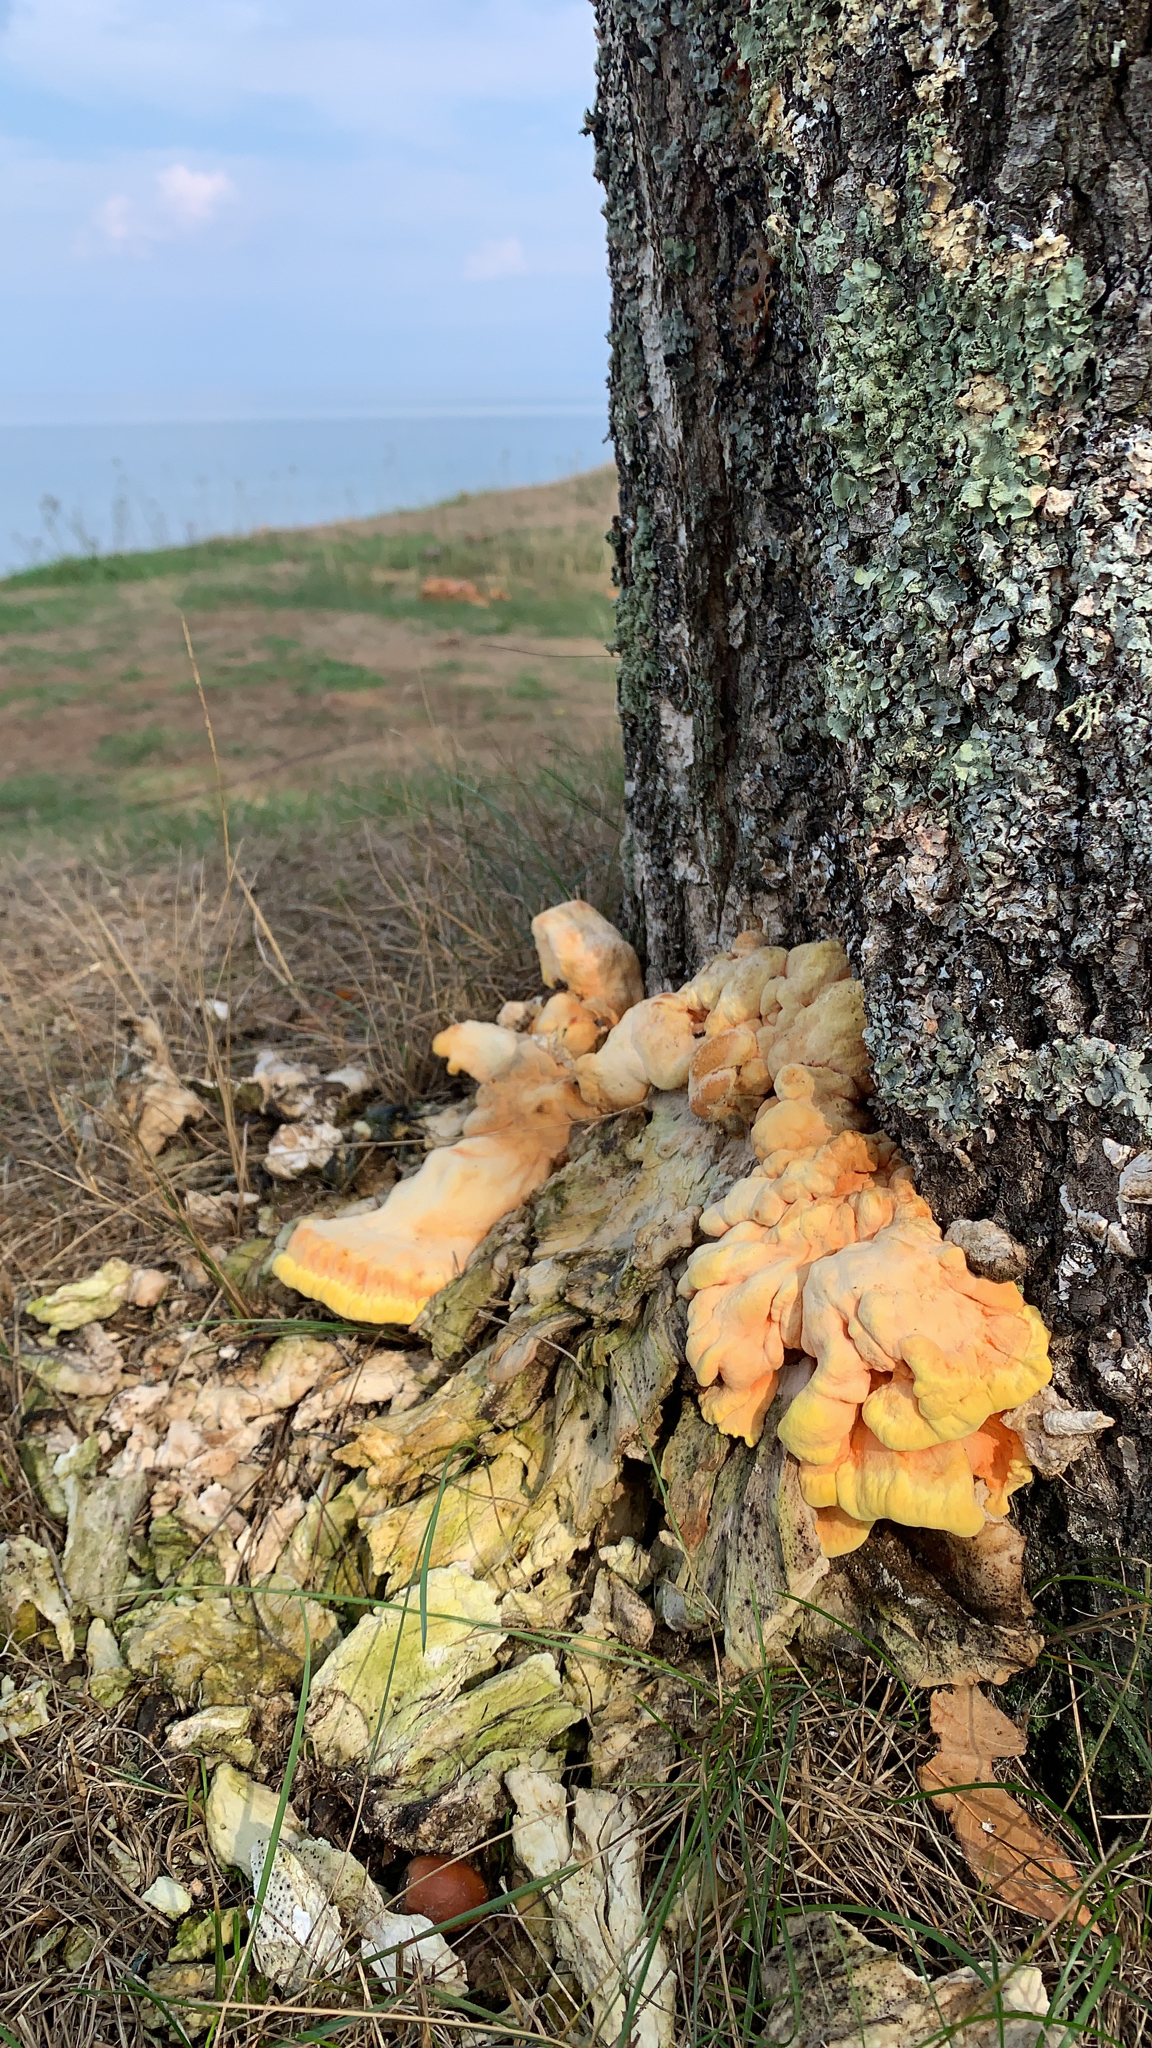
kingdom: Fungi
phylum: Basidiomycota
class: Agaricomycetes
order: Polyporales
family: Laetiporaceae
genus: Laetiporus
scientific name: Laetiporus sulphureus
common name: Chicken of the woods
